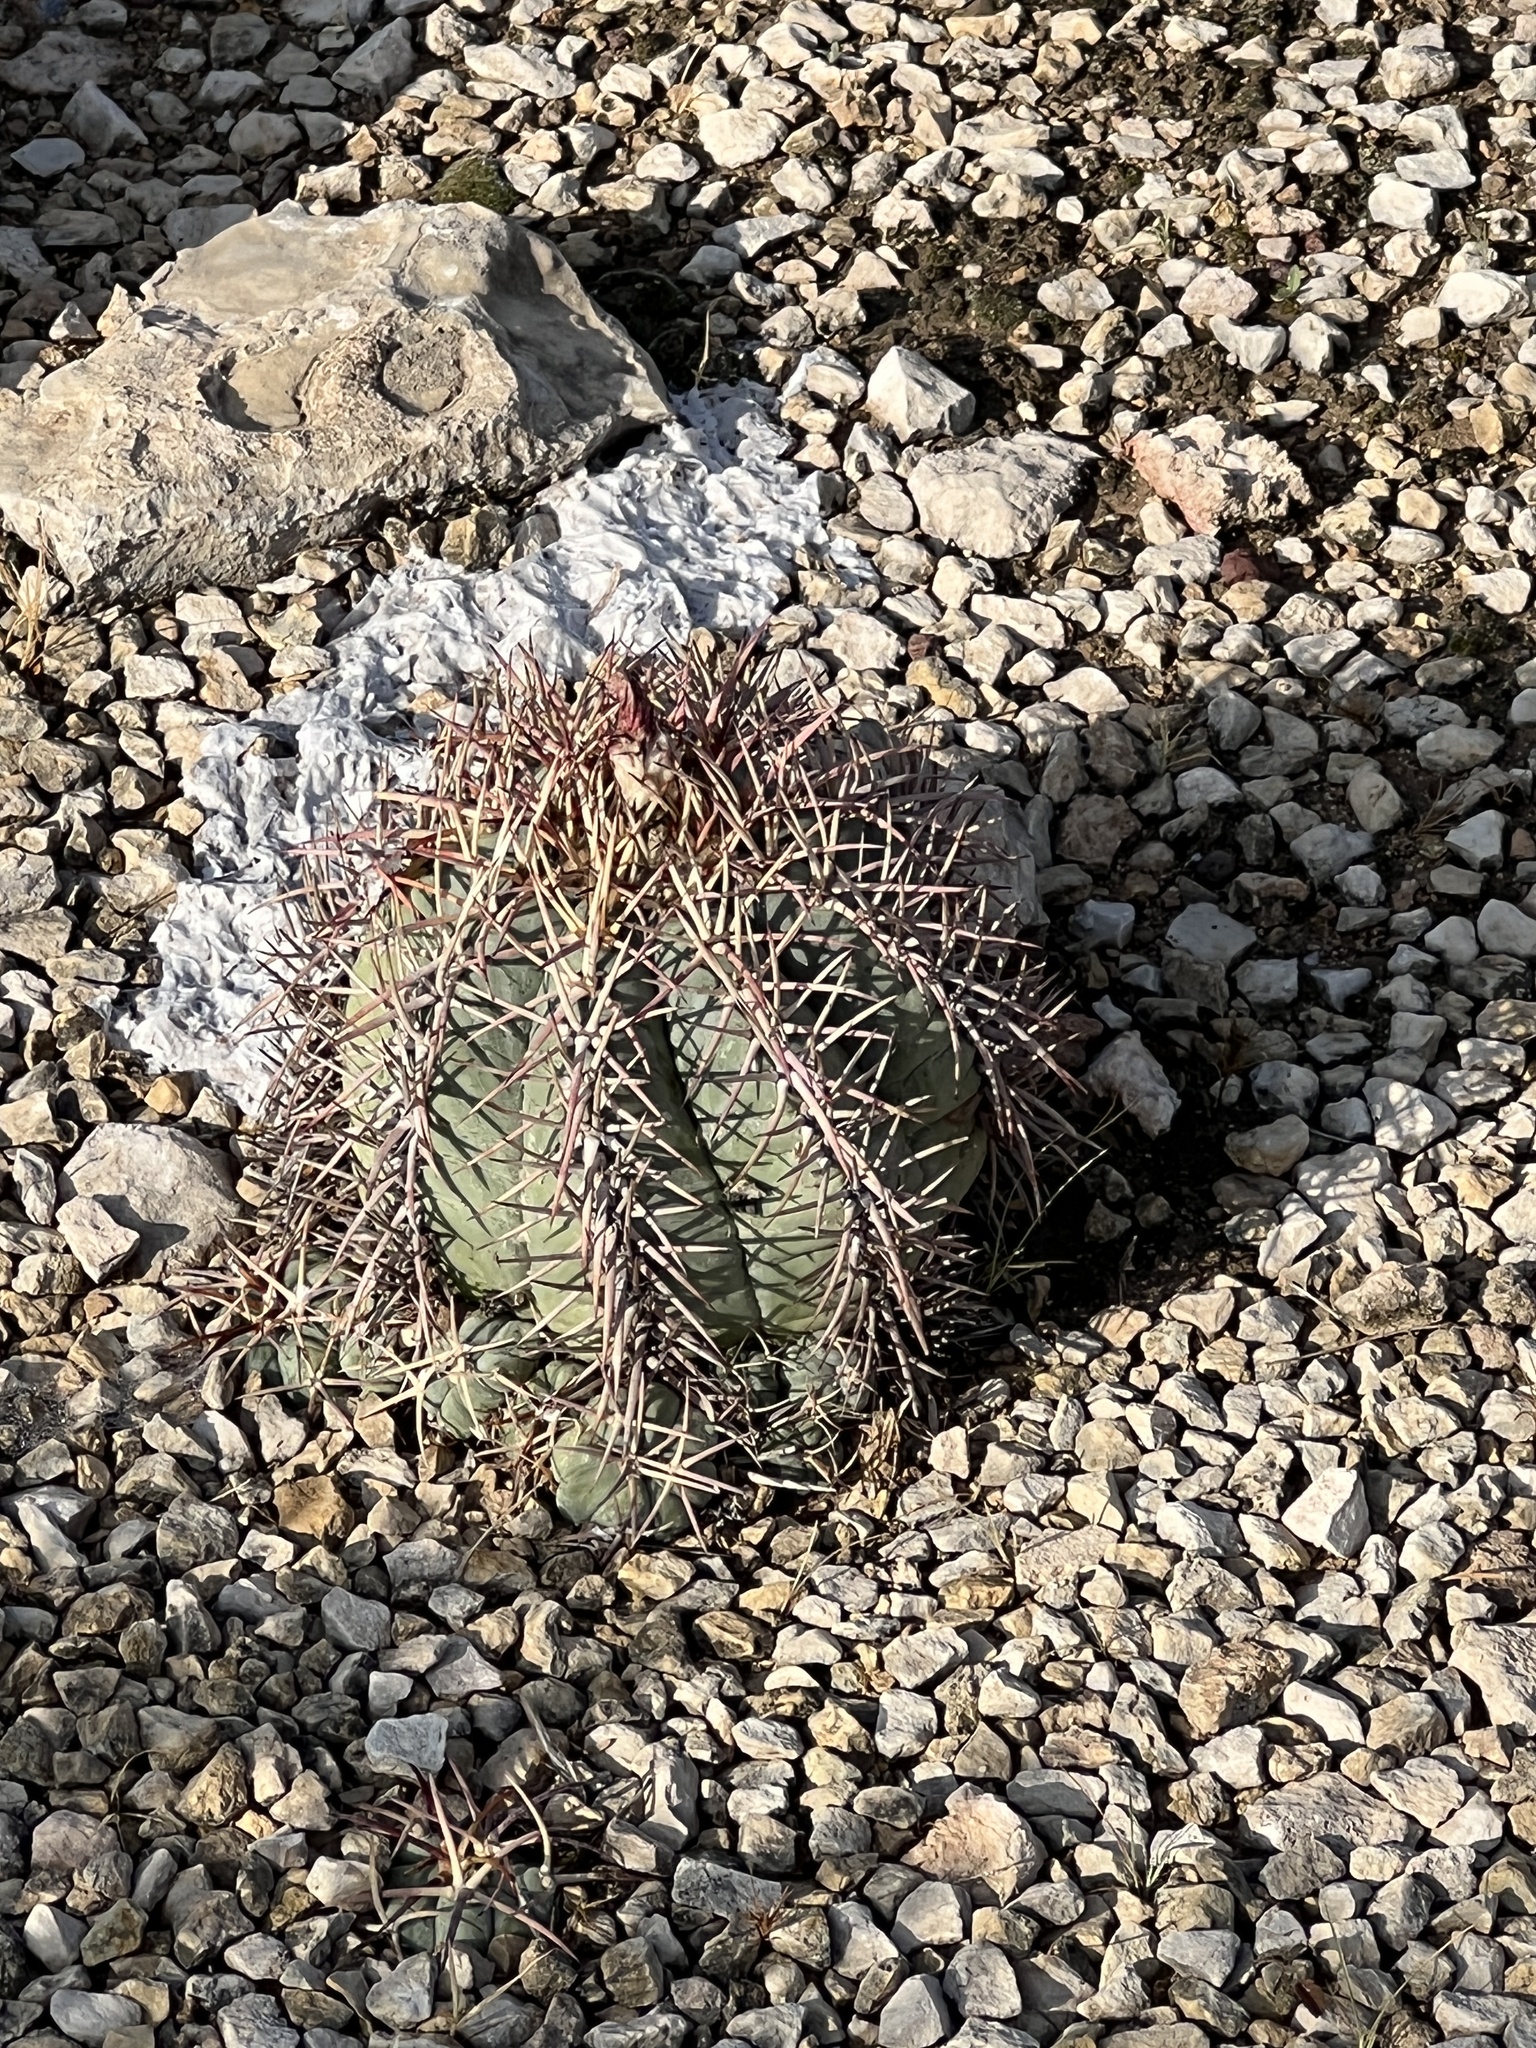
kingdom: Plantae
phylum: Tracheophyta
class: Magnoliopsida
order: Caryophyllales
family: Cactaceae
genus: Echinocactus
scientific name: Echinocactus horizonthalonius
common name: Devilshead
